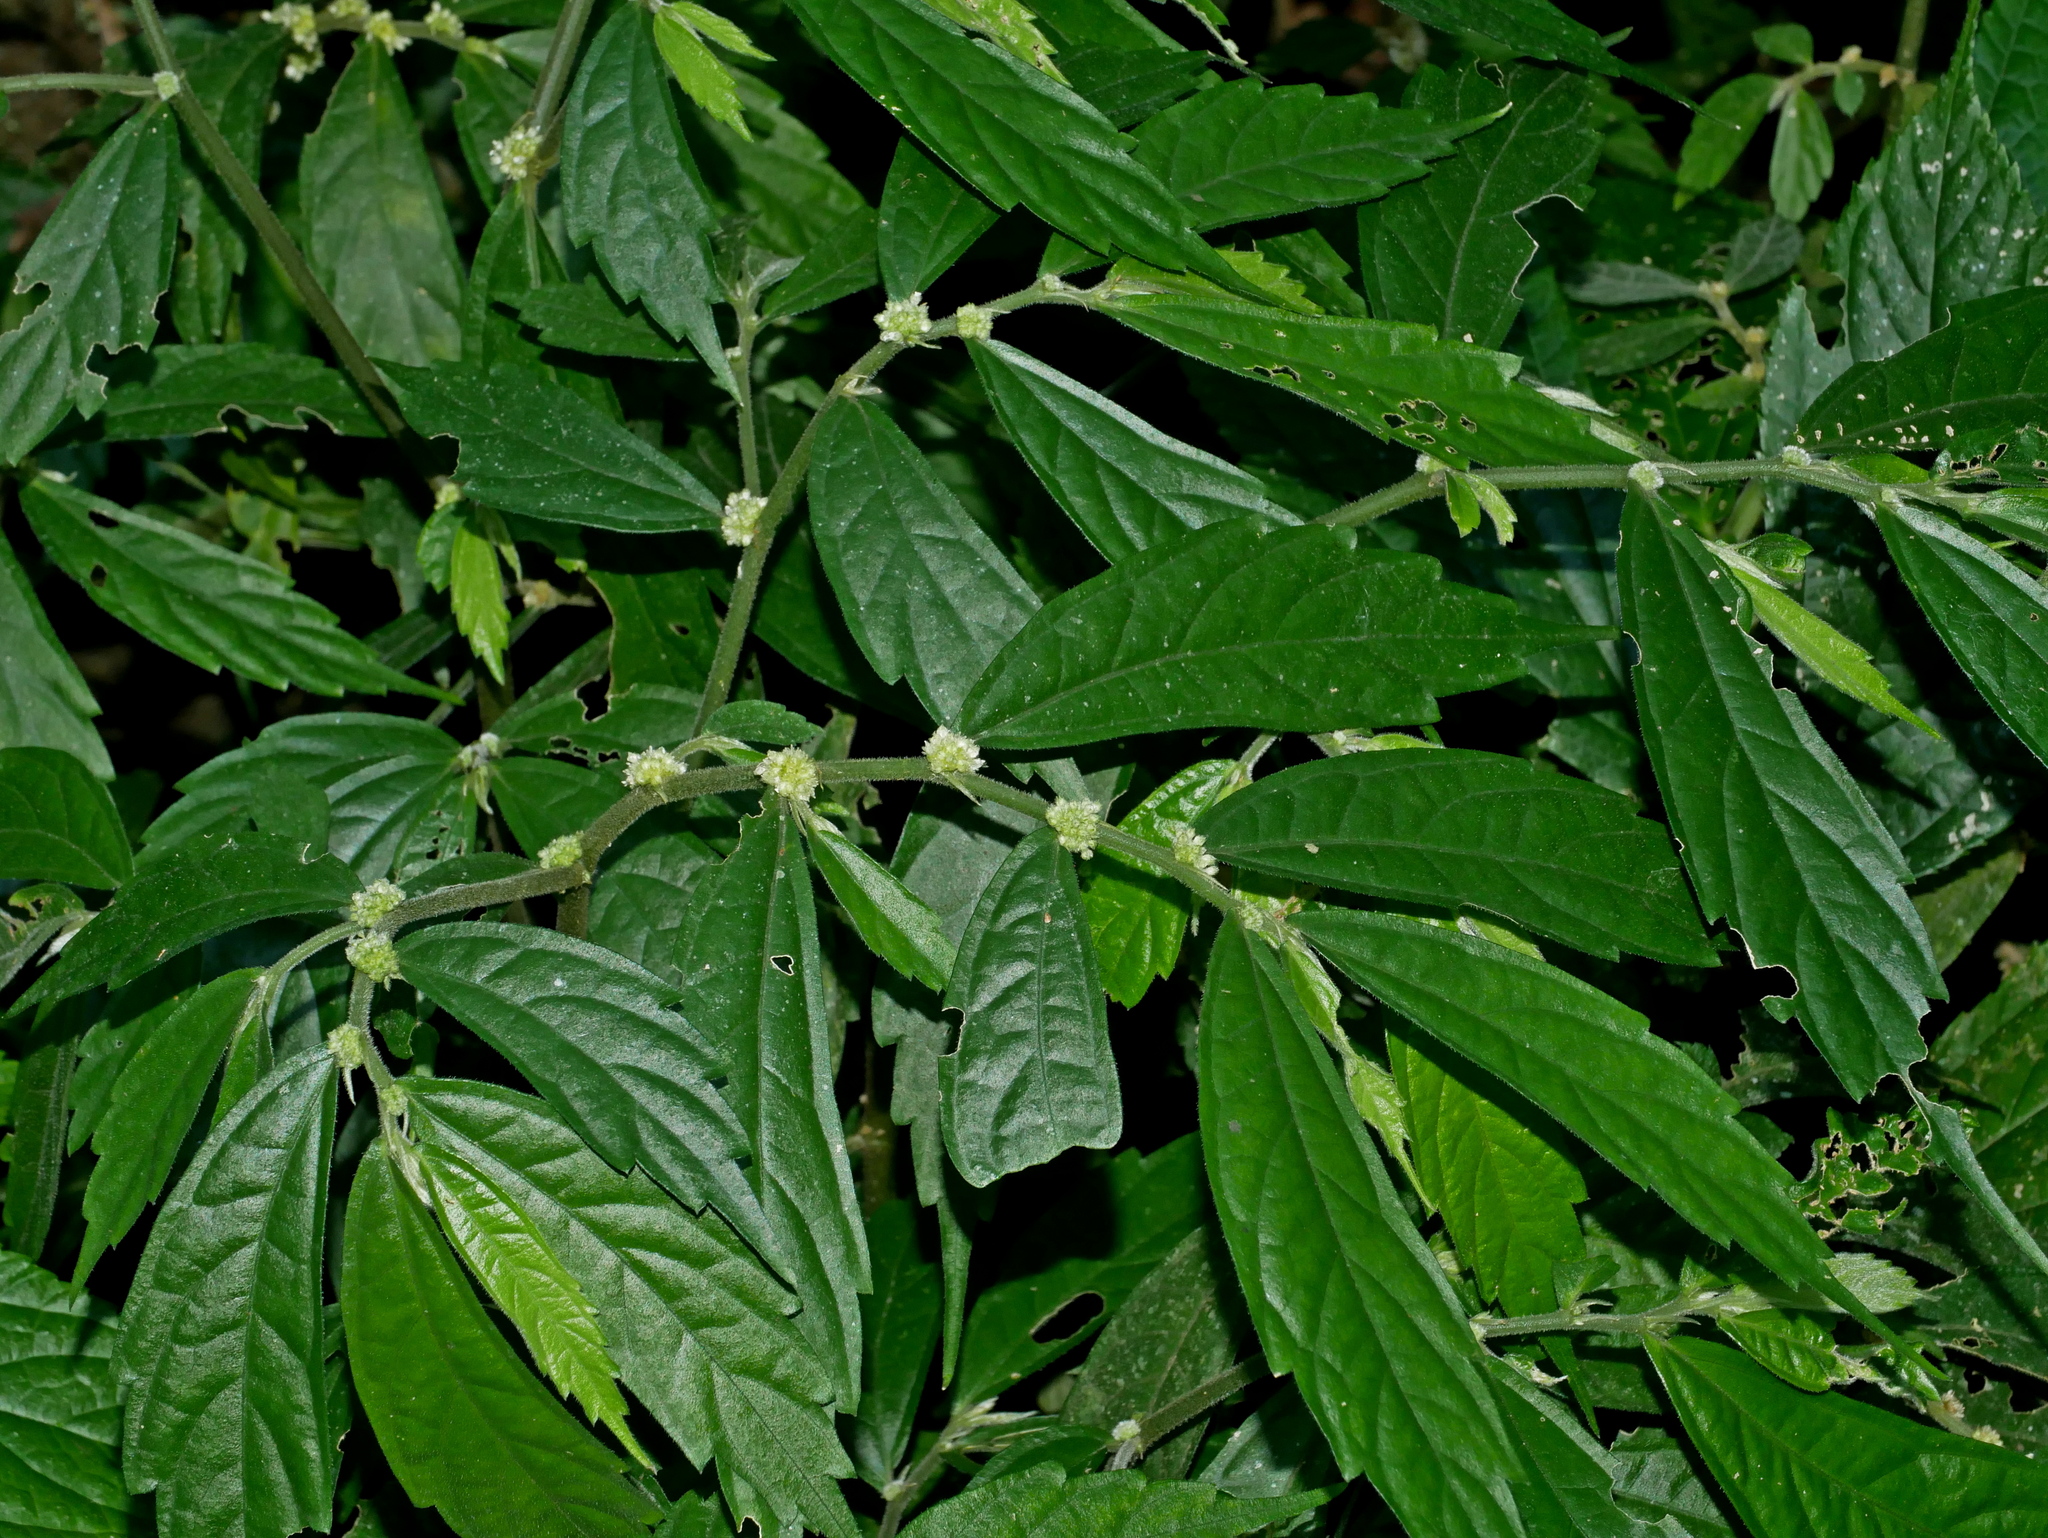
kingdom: Plantae
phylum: Tracheophyta
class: Magnoliopsida
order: Rosales
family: Urticaceae
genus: Elatostema
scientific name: Elatostema lineolatum
